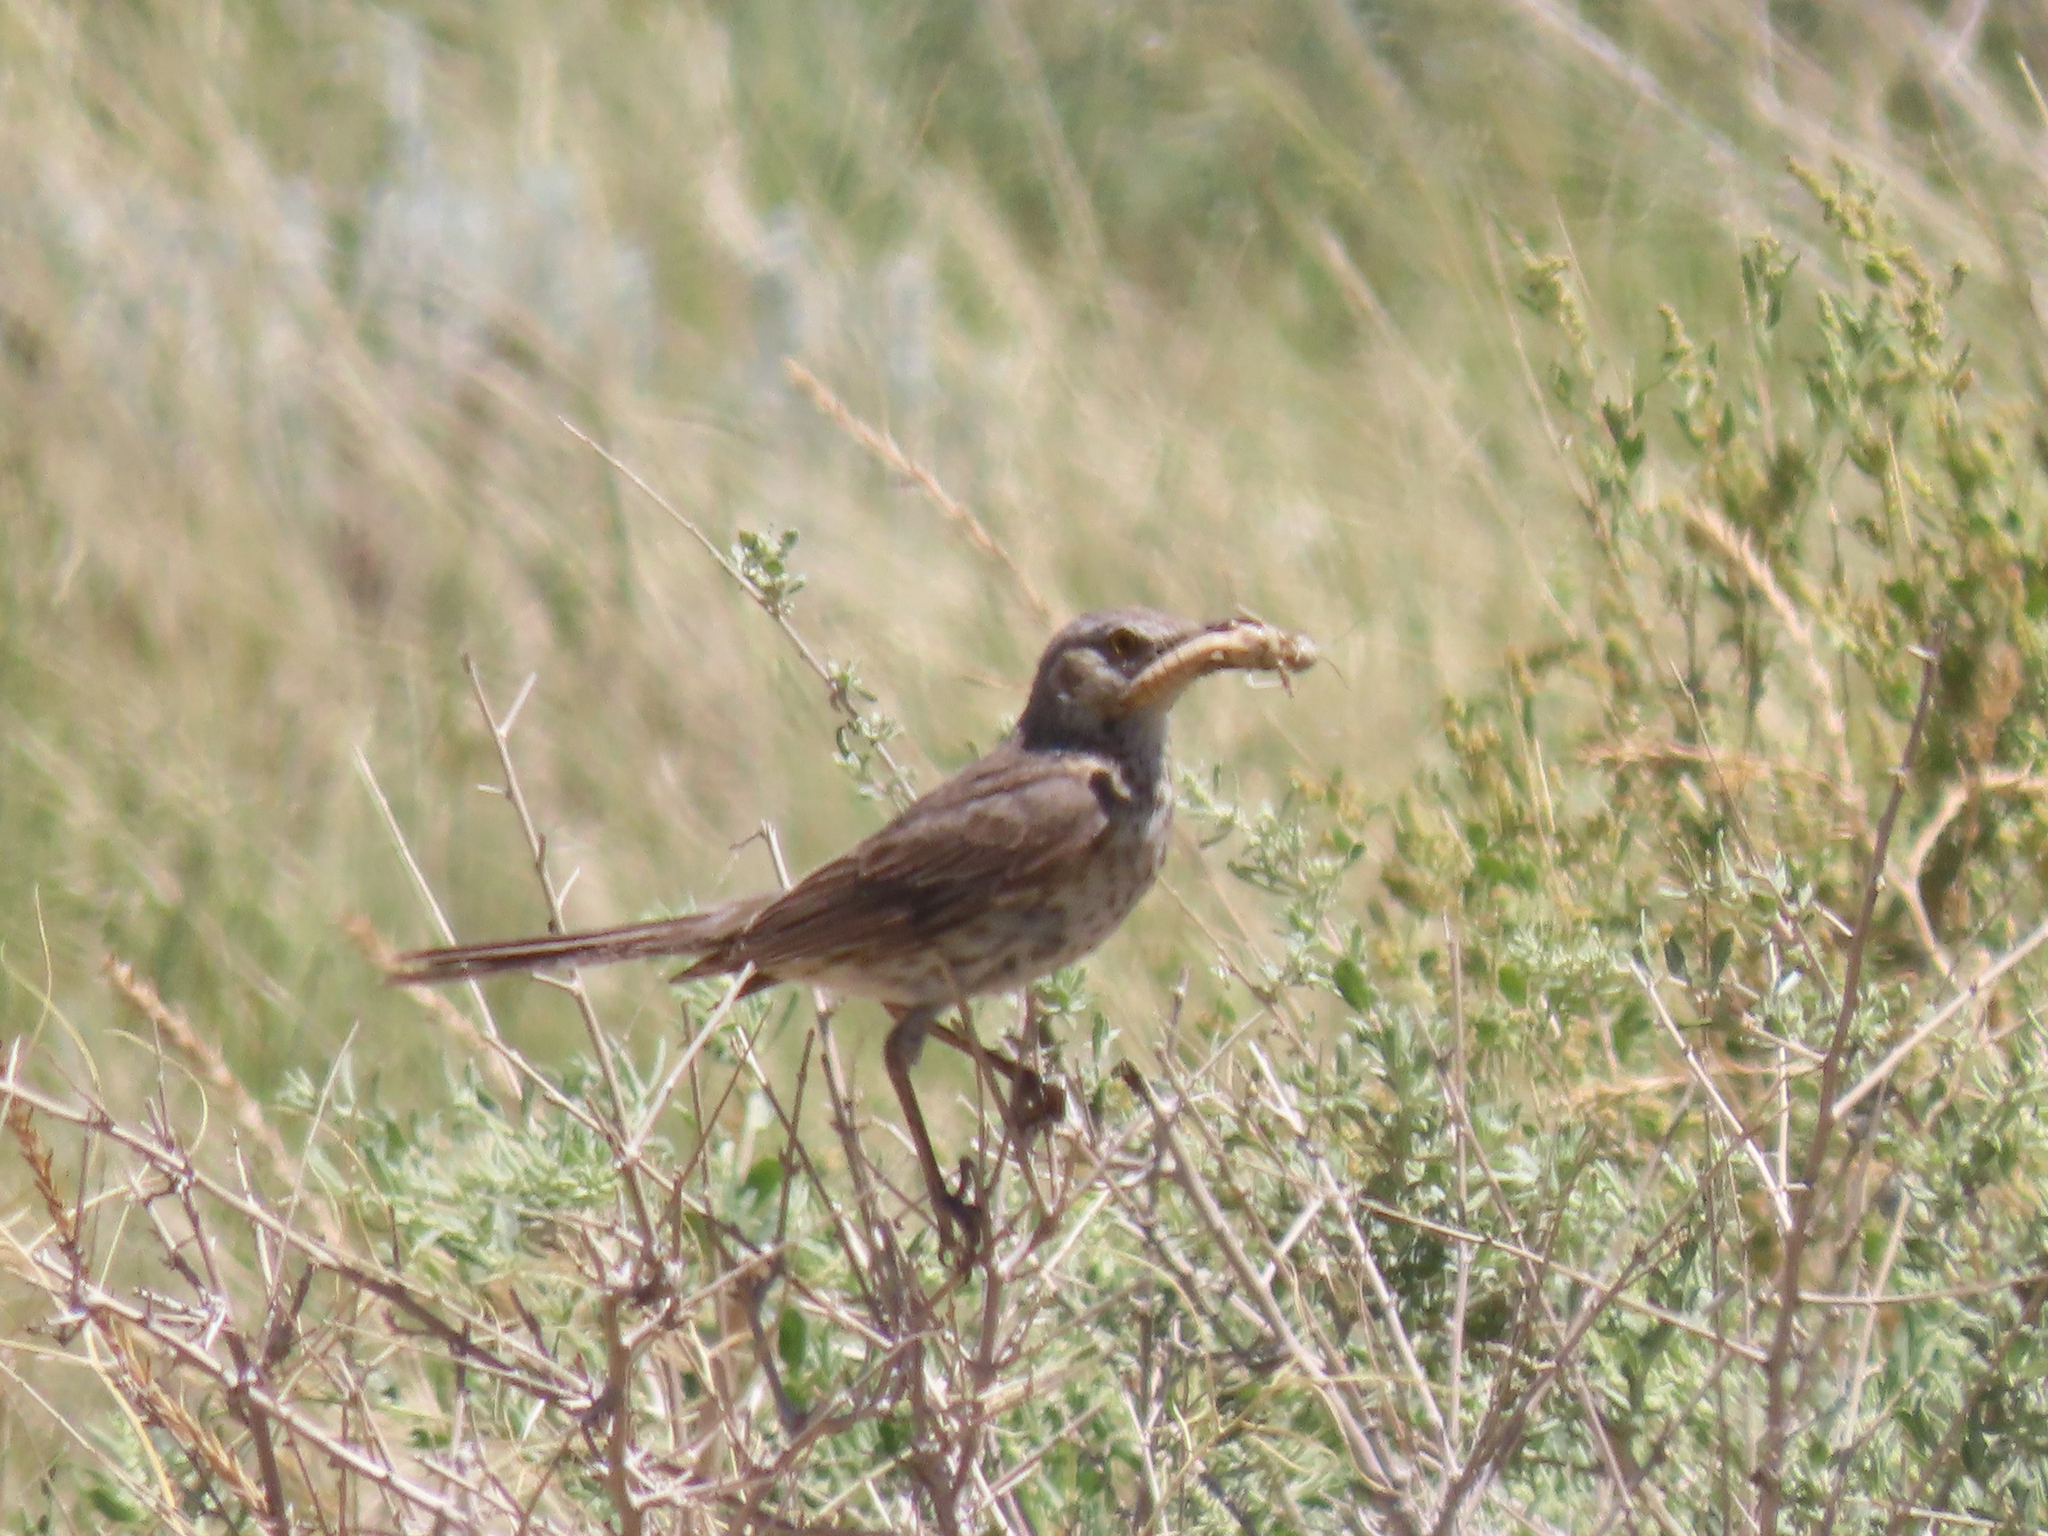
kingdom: Animalia
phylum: Chordata
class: Aves
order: Passeriformes
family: Mimidae
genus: Oreoscoptes
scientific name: Oreoscoptes montanus
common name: Sage thrasher
